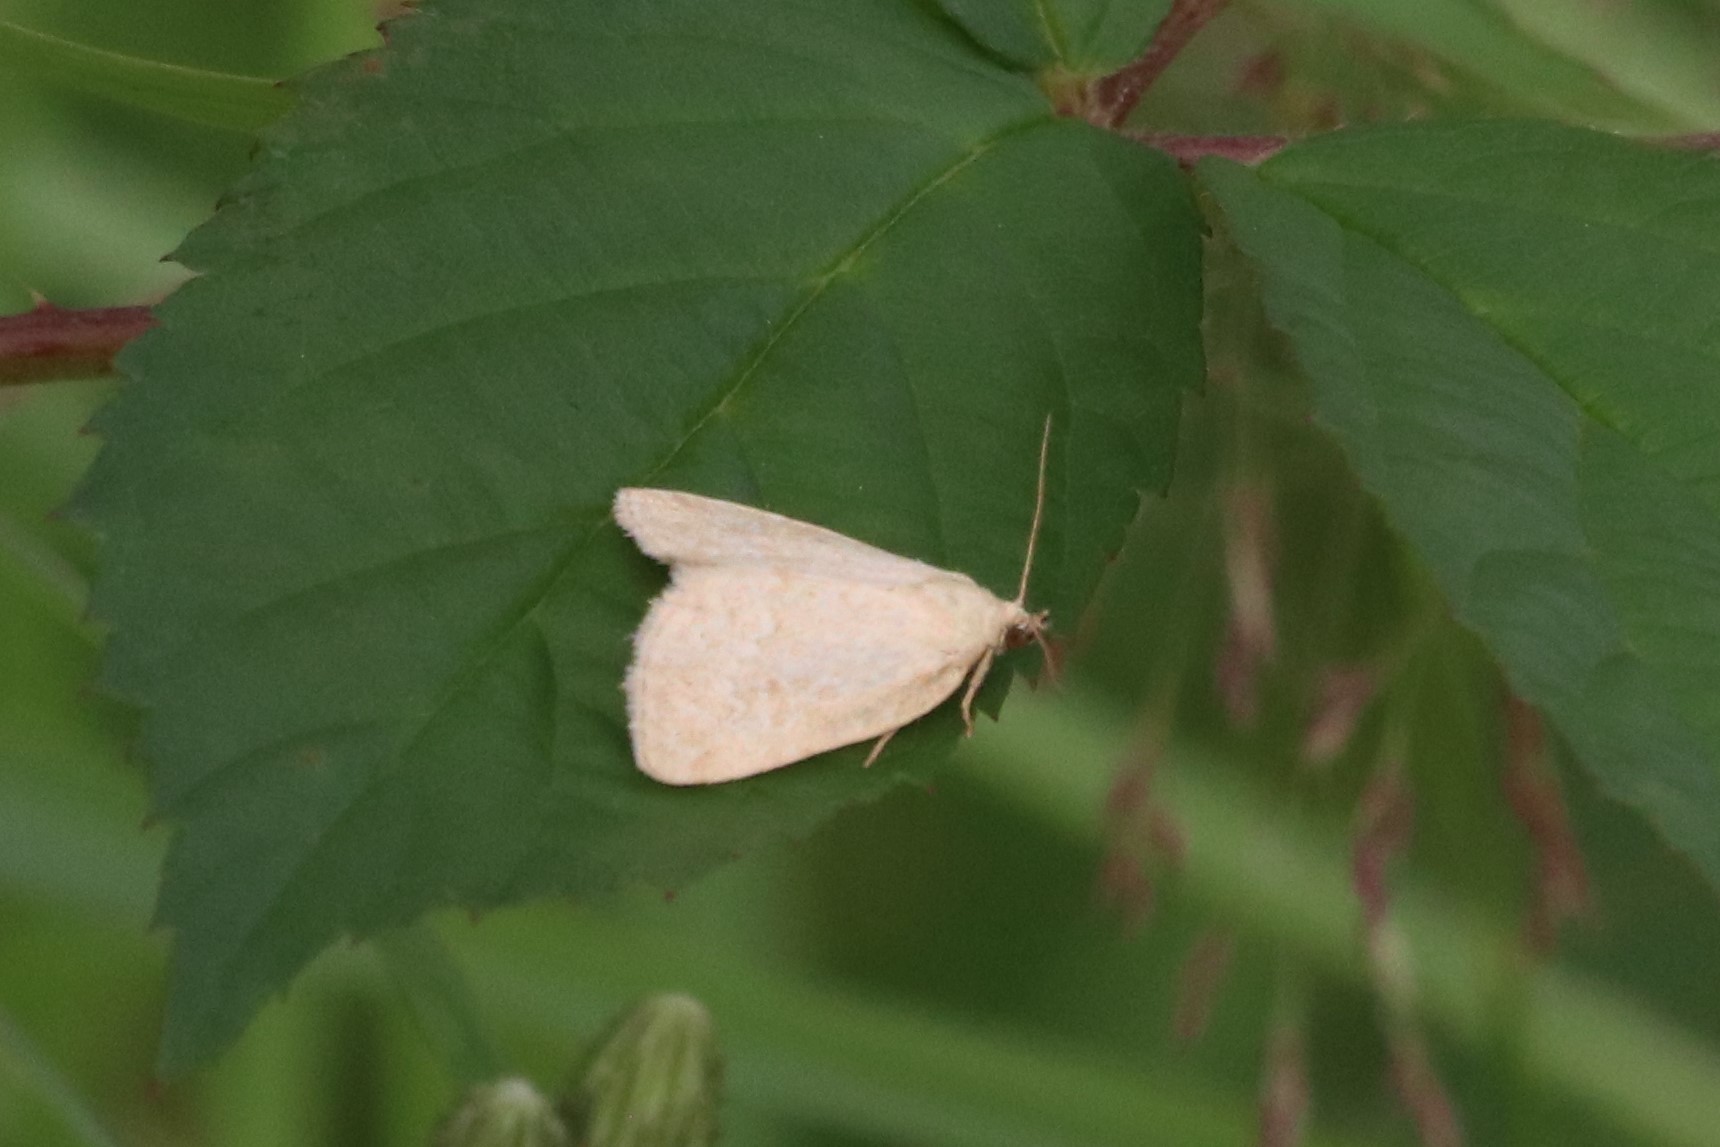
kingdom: Animalia
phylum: Arthropoda
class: Insecta
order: Lepidoptera
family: Noctuidae
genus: Protodeltote
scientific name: Protodeltote albidula
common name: Pale glyph
